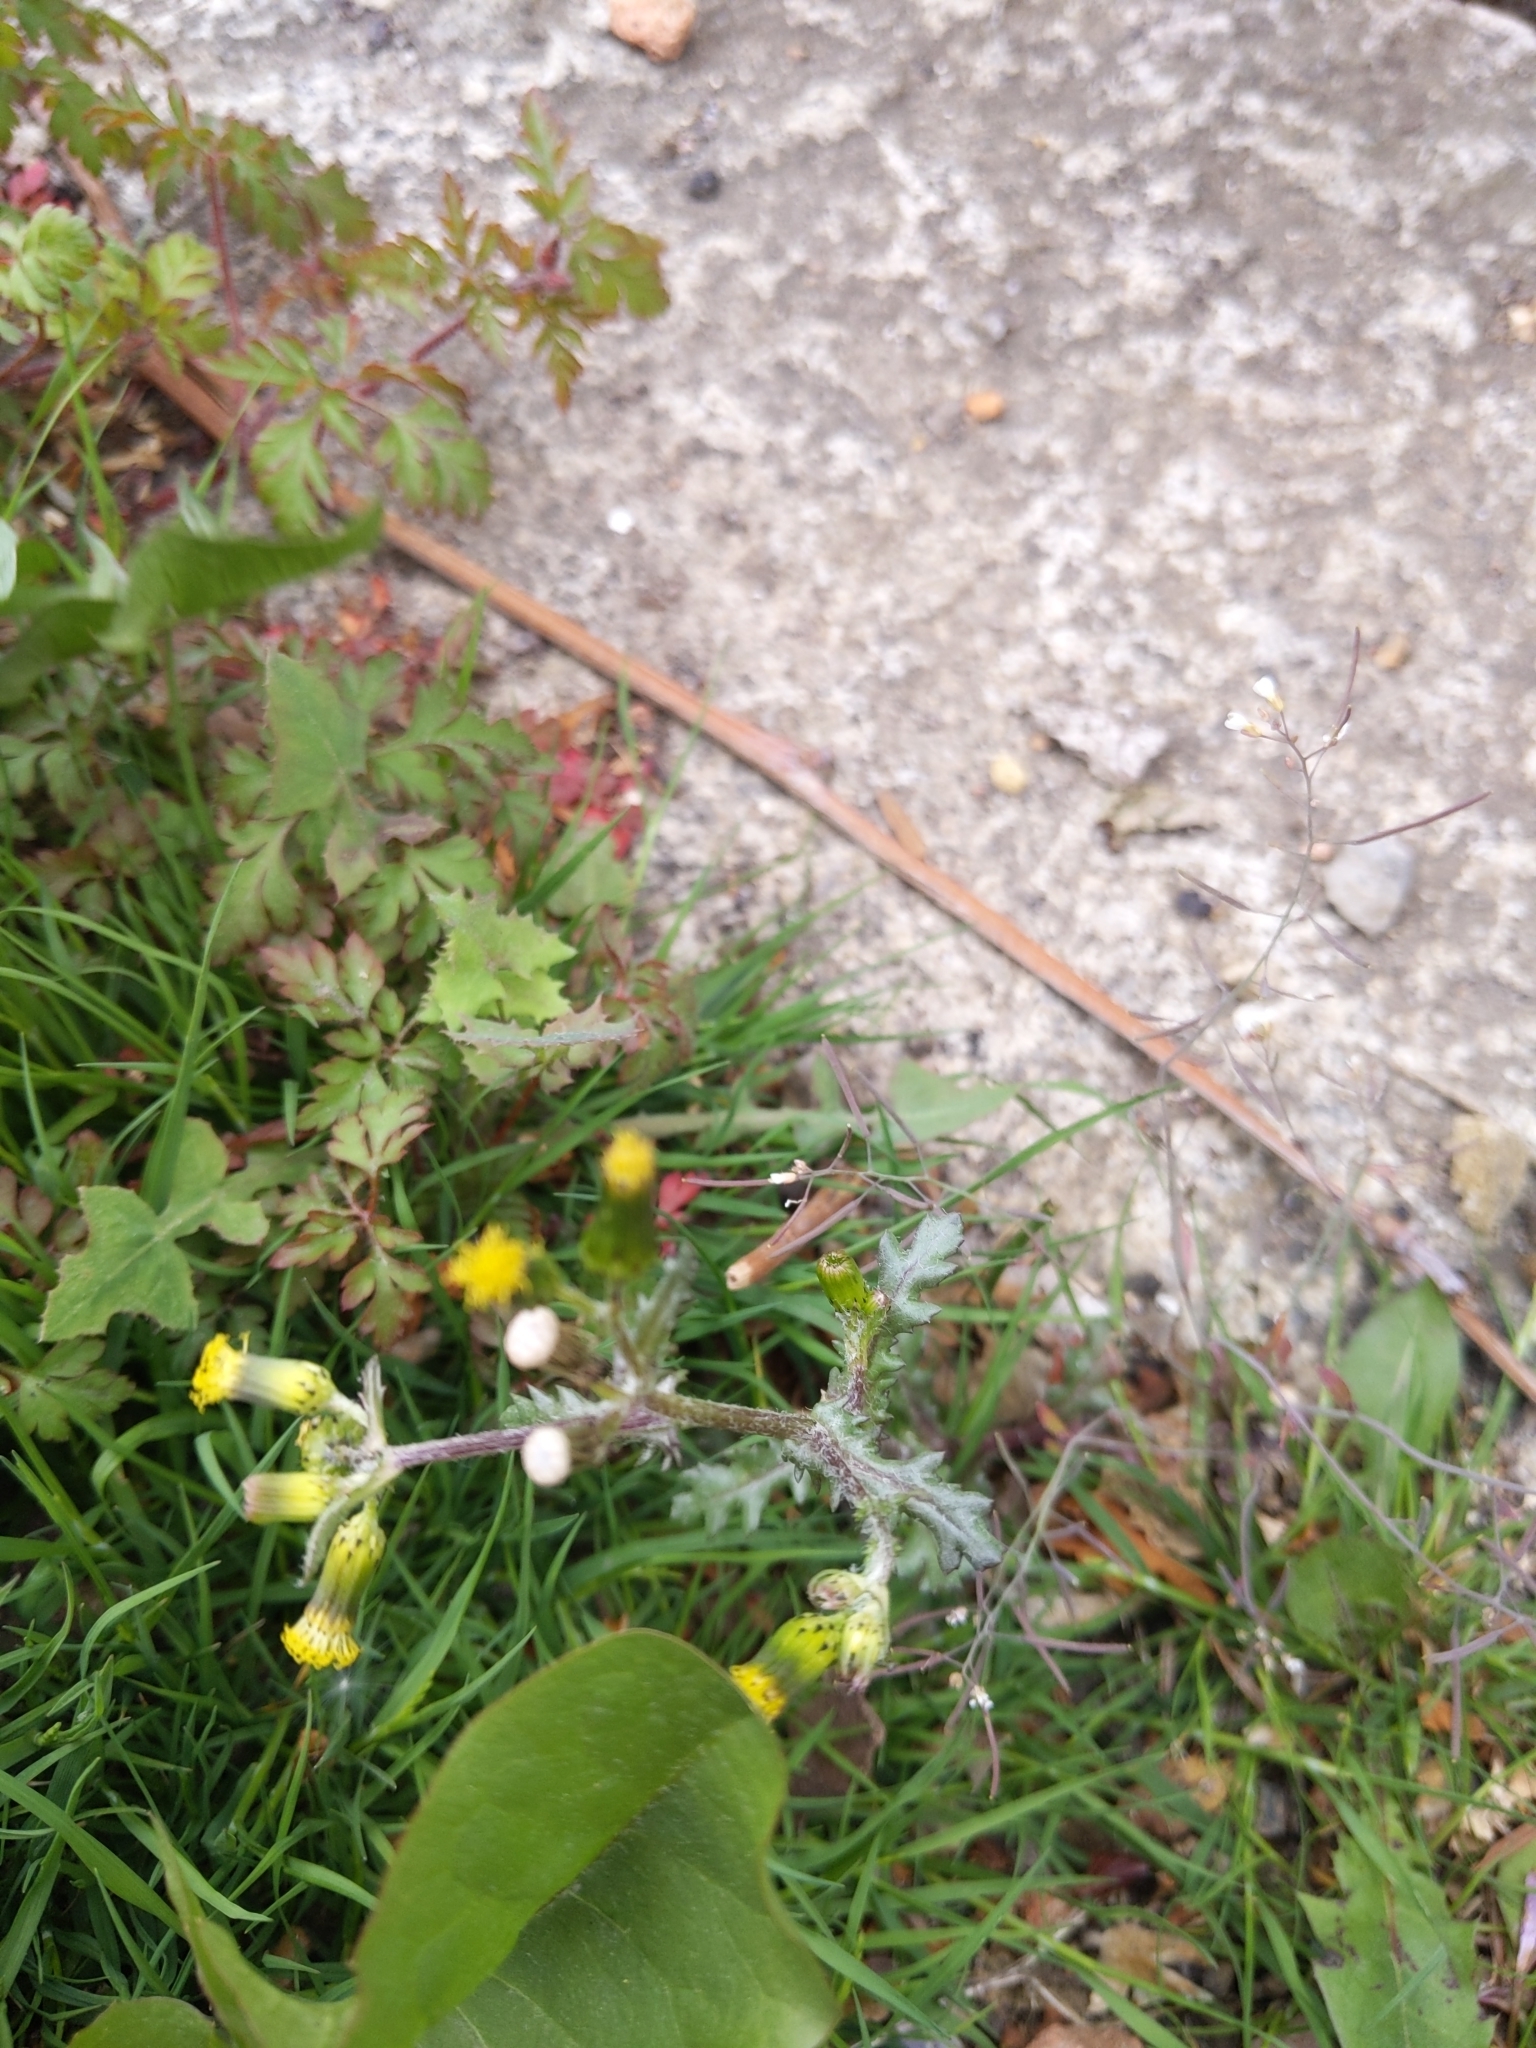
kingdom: Plantae
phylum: Tracheophyta
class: Magnoliopsida
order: Asterales
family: Asteraceae
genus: Senecio
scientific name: Senecio vulgaris
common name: Old-man-in-the-spring
